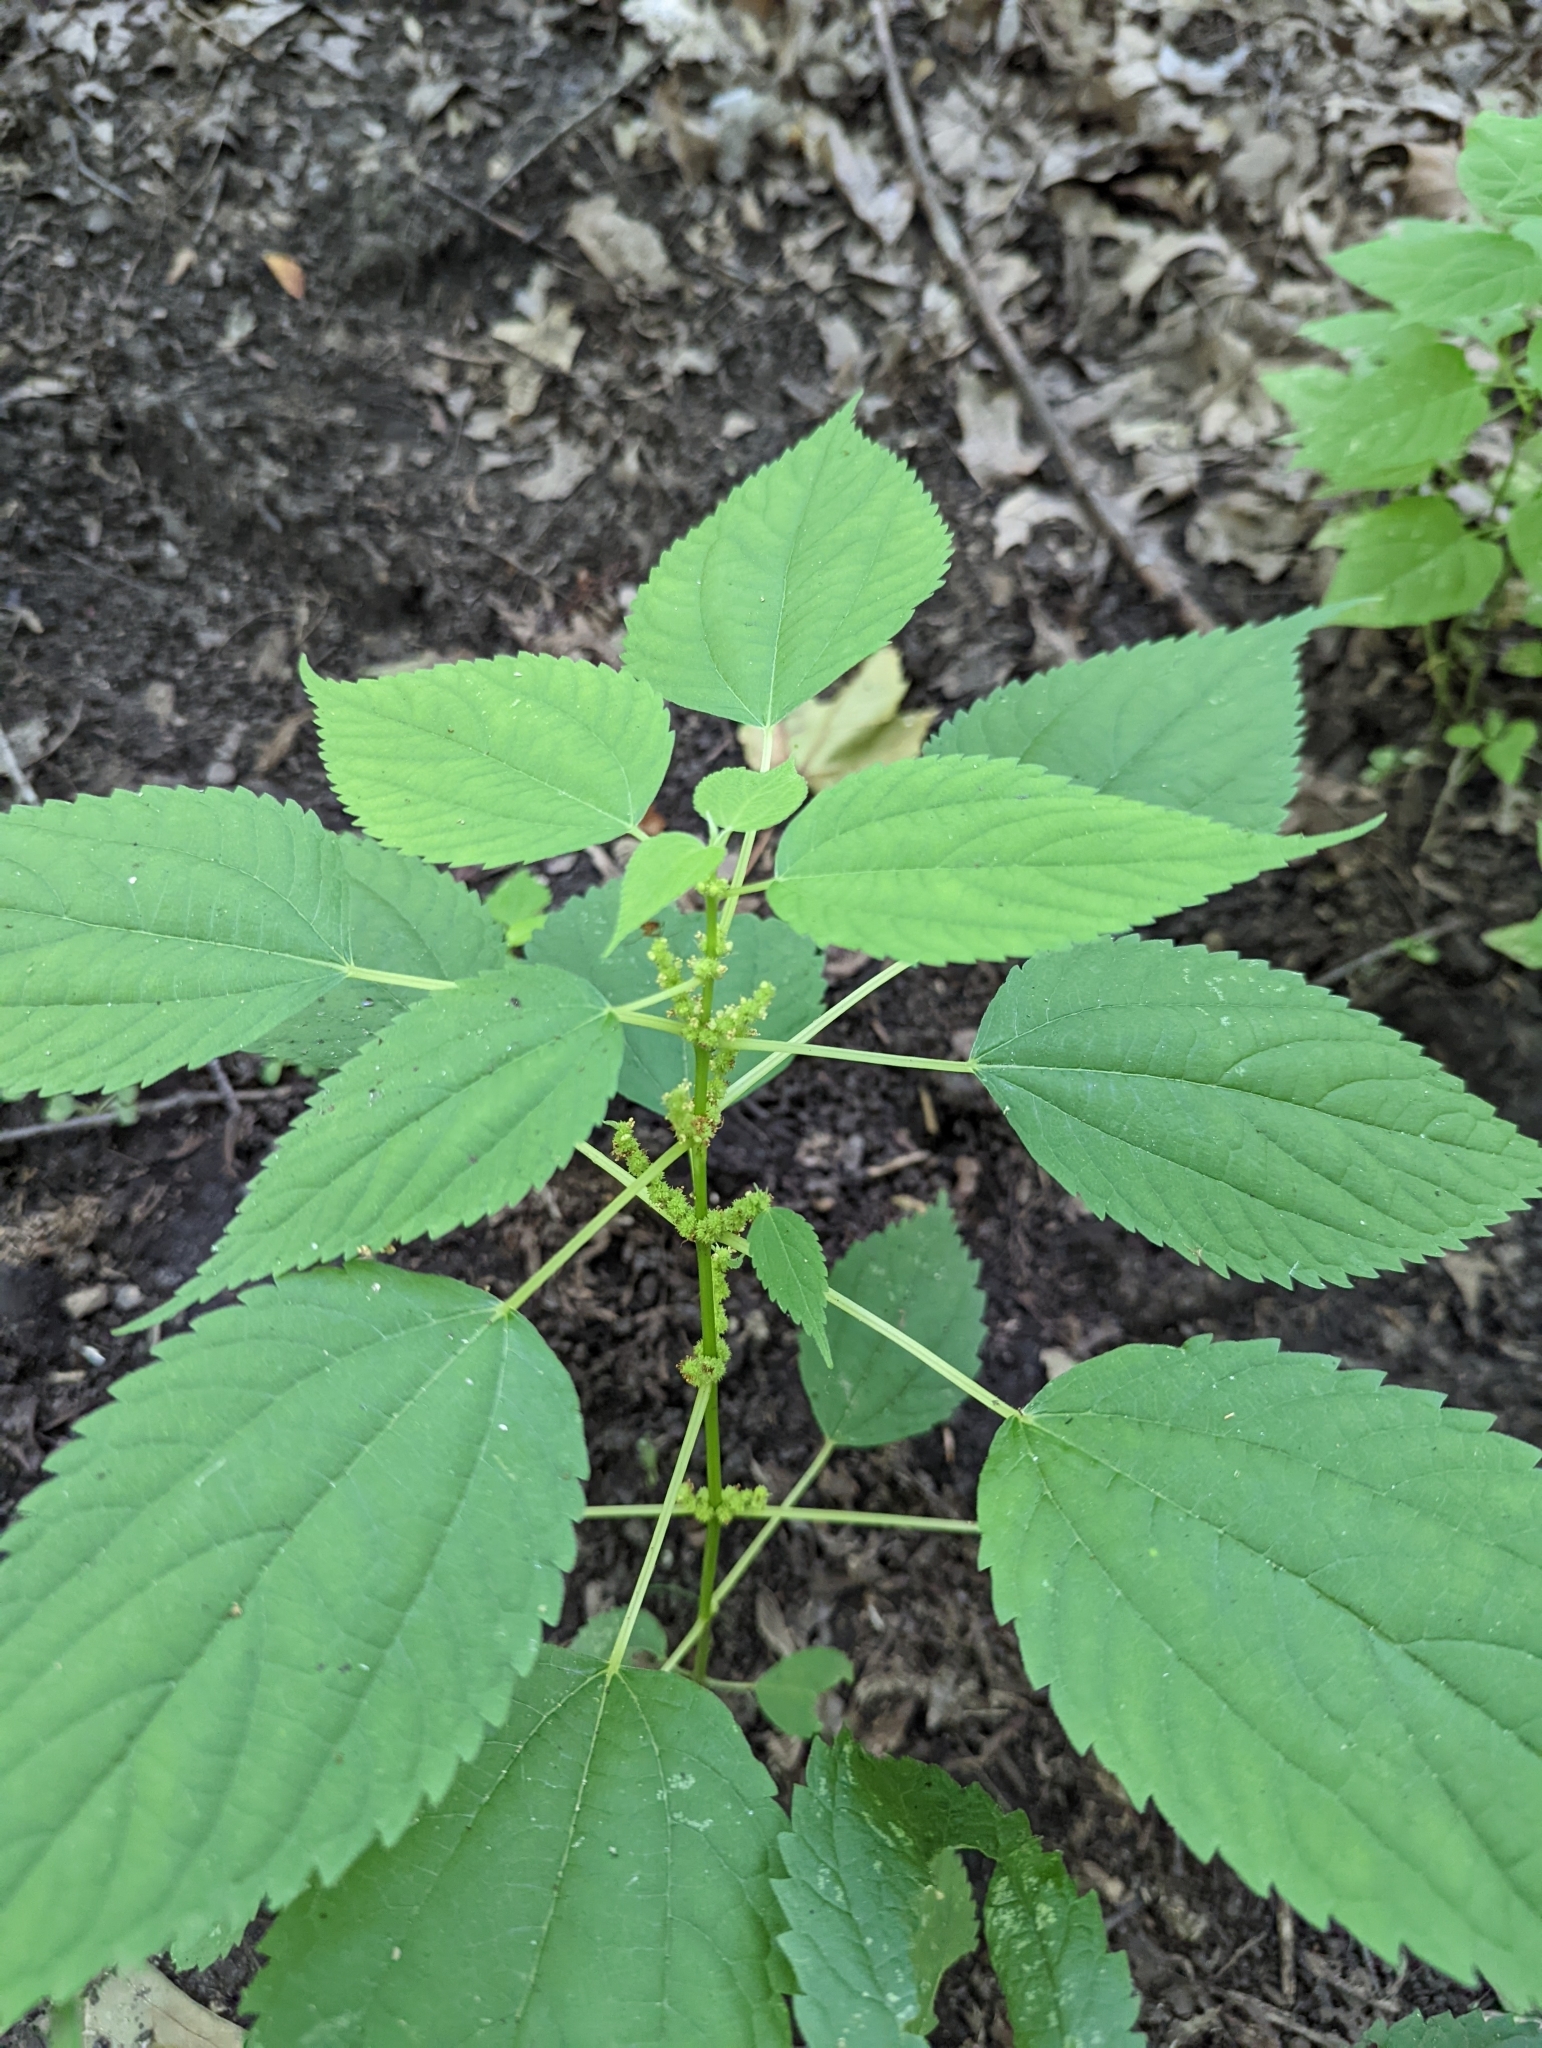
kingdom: Plantae
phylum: Tracheophyta
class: Magnoliopsida
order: Rosales
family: Urticaceae
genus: Boehmeria
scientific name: Boehmeria cylindrica
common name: Bog-hemp
